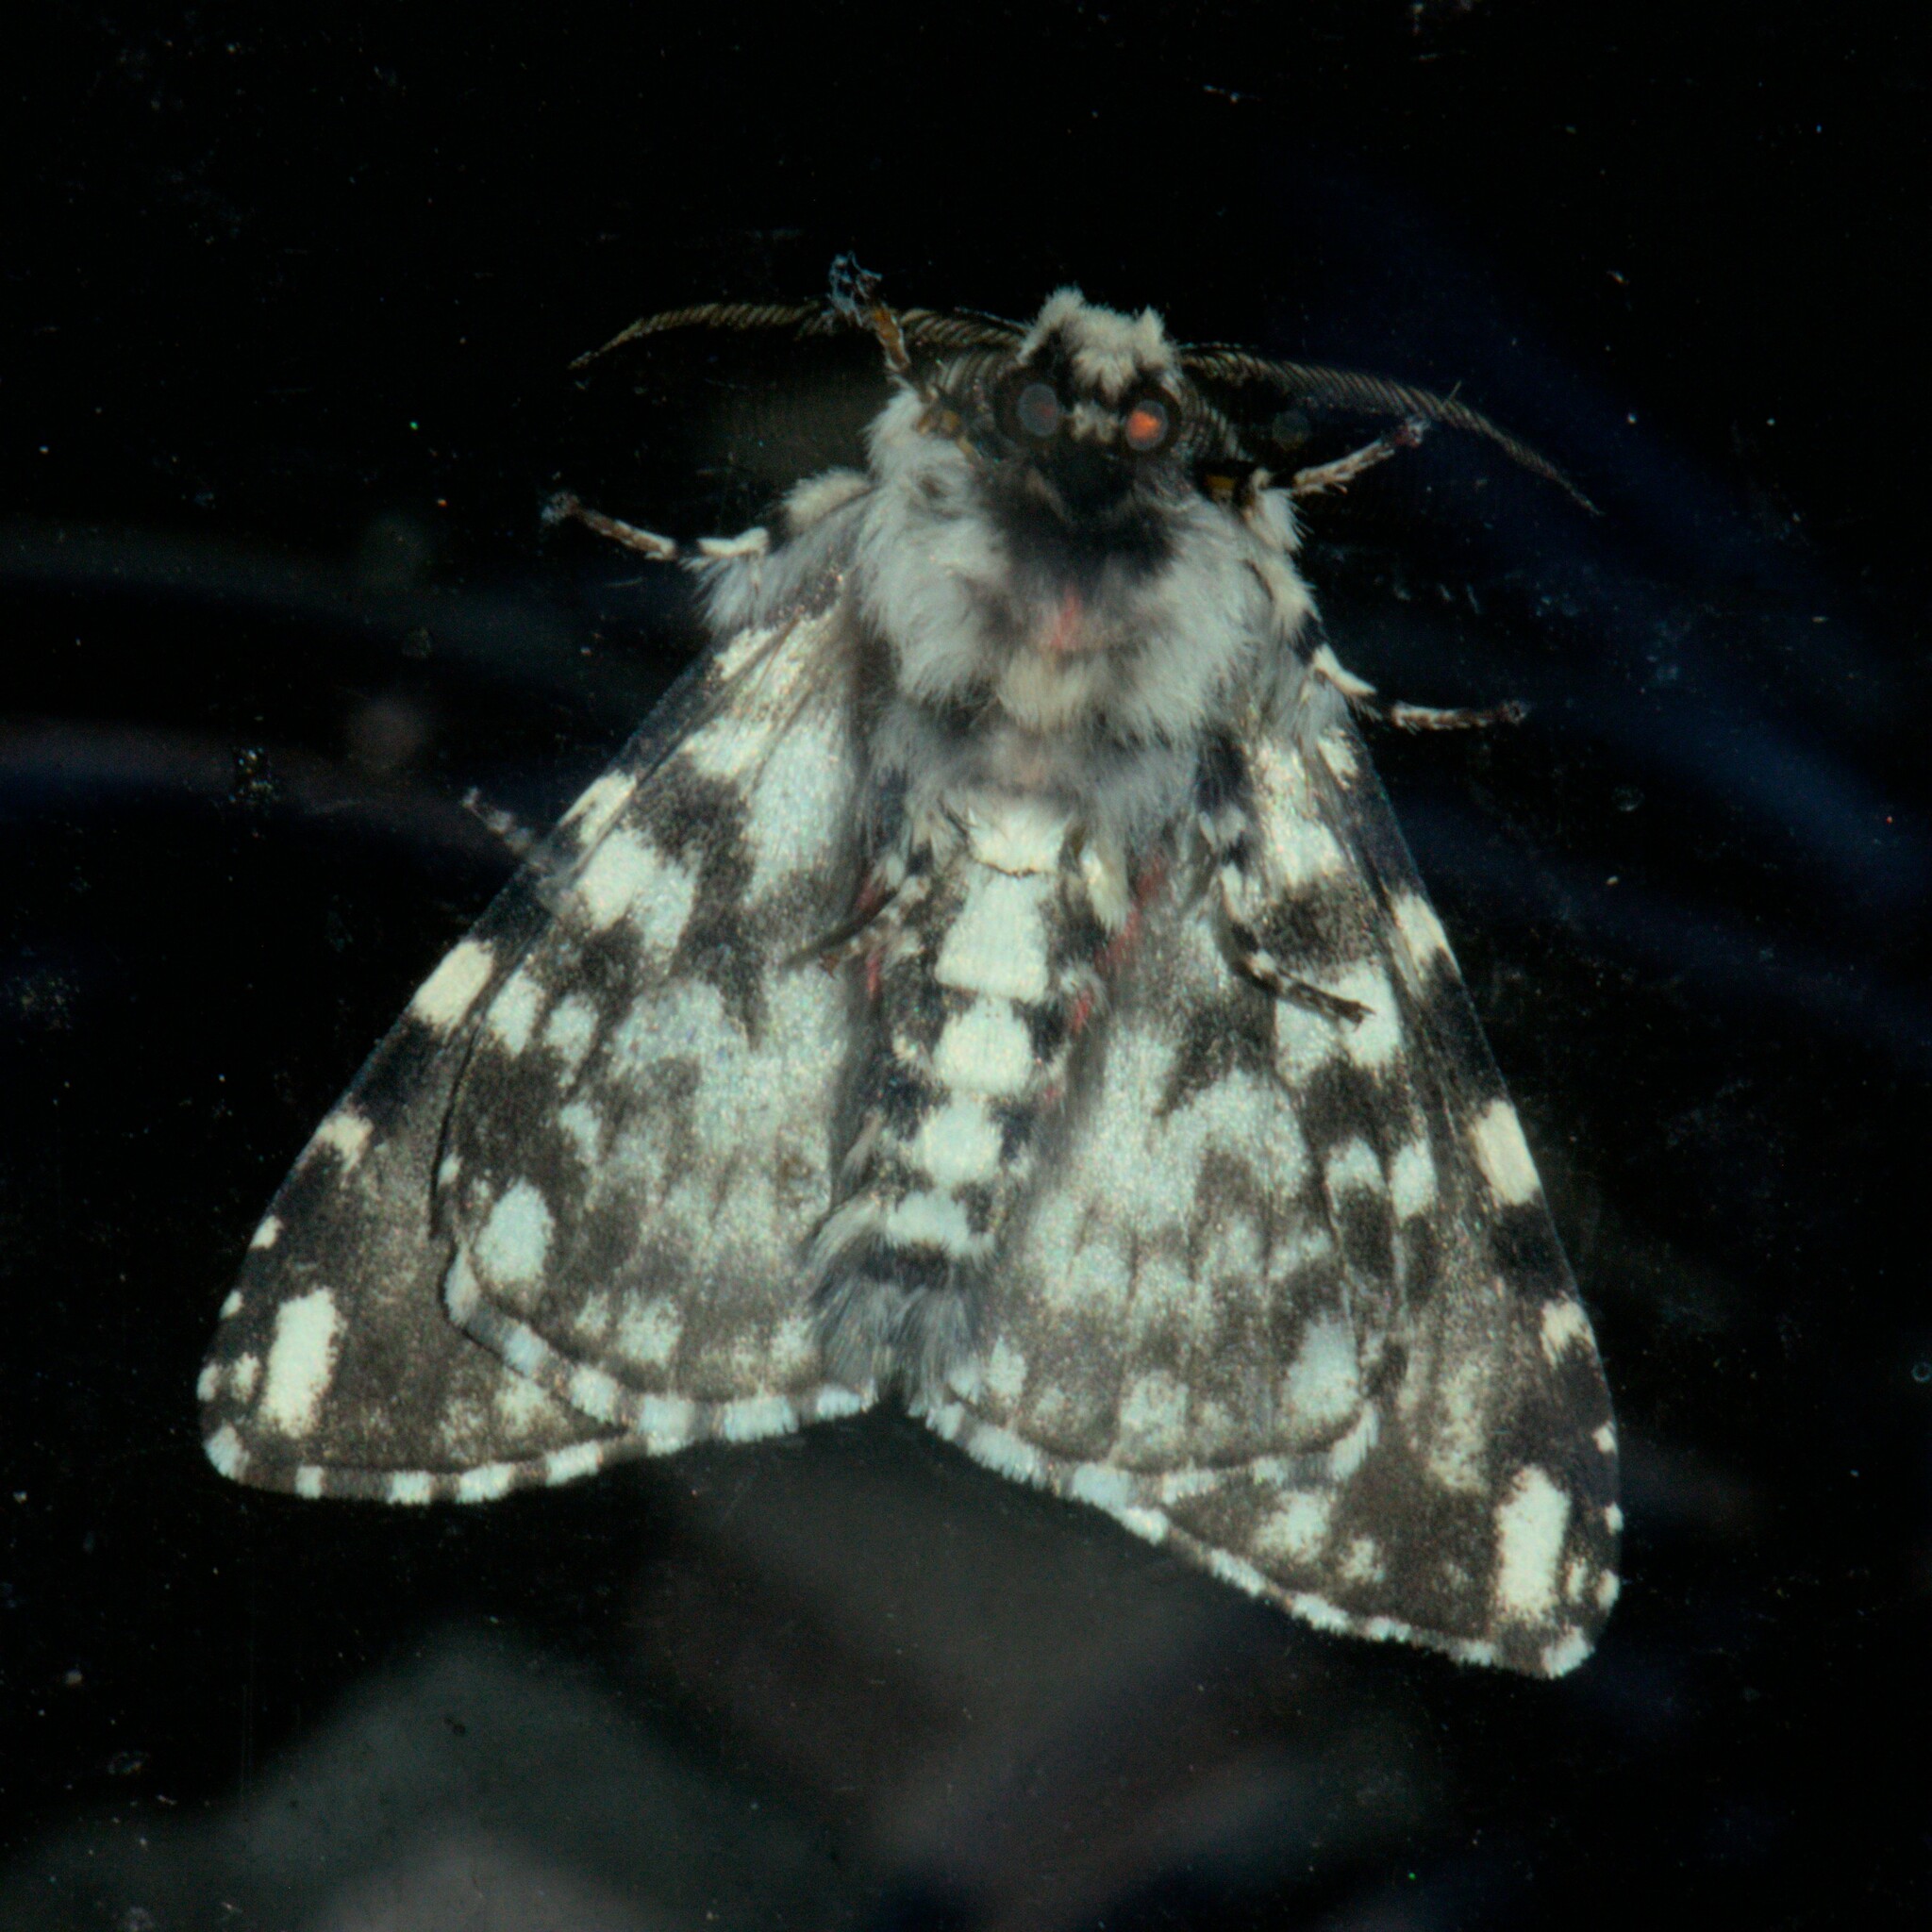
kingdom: Animalia
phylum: Arthropoda
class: Insecta
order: Lepidoptera
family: Erebidae
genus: Lymantria
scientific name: Lymantria concolor
